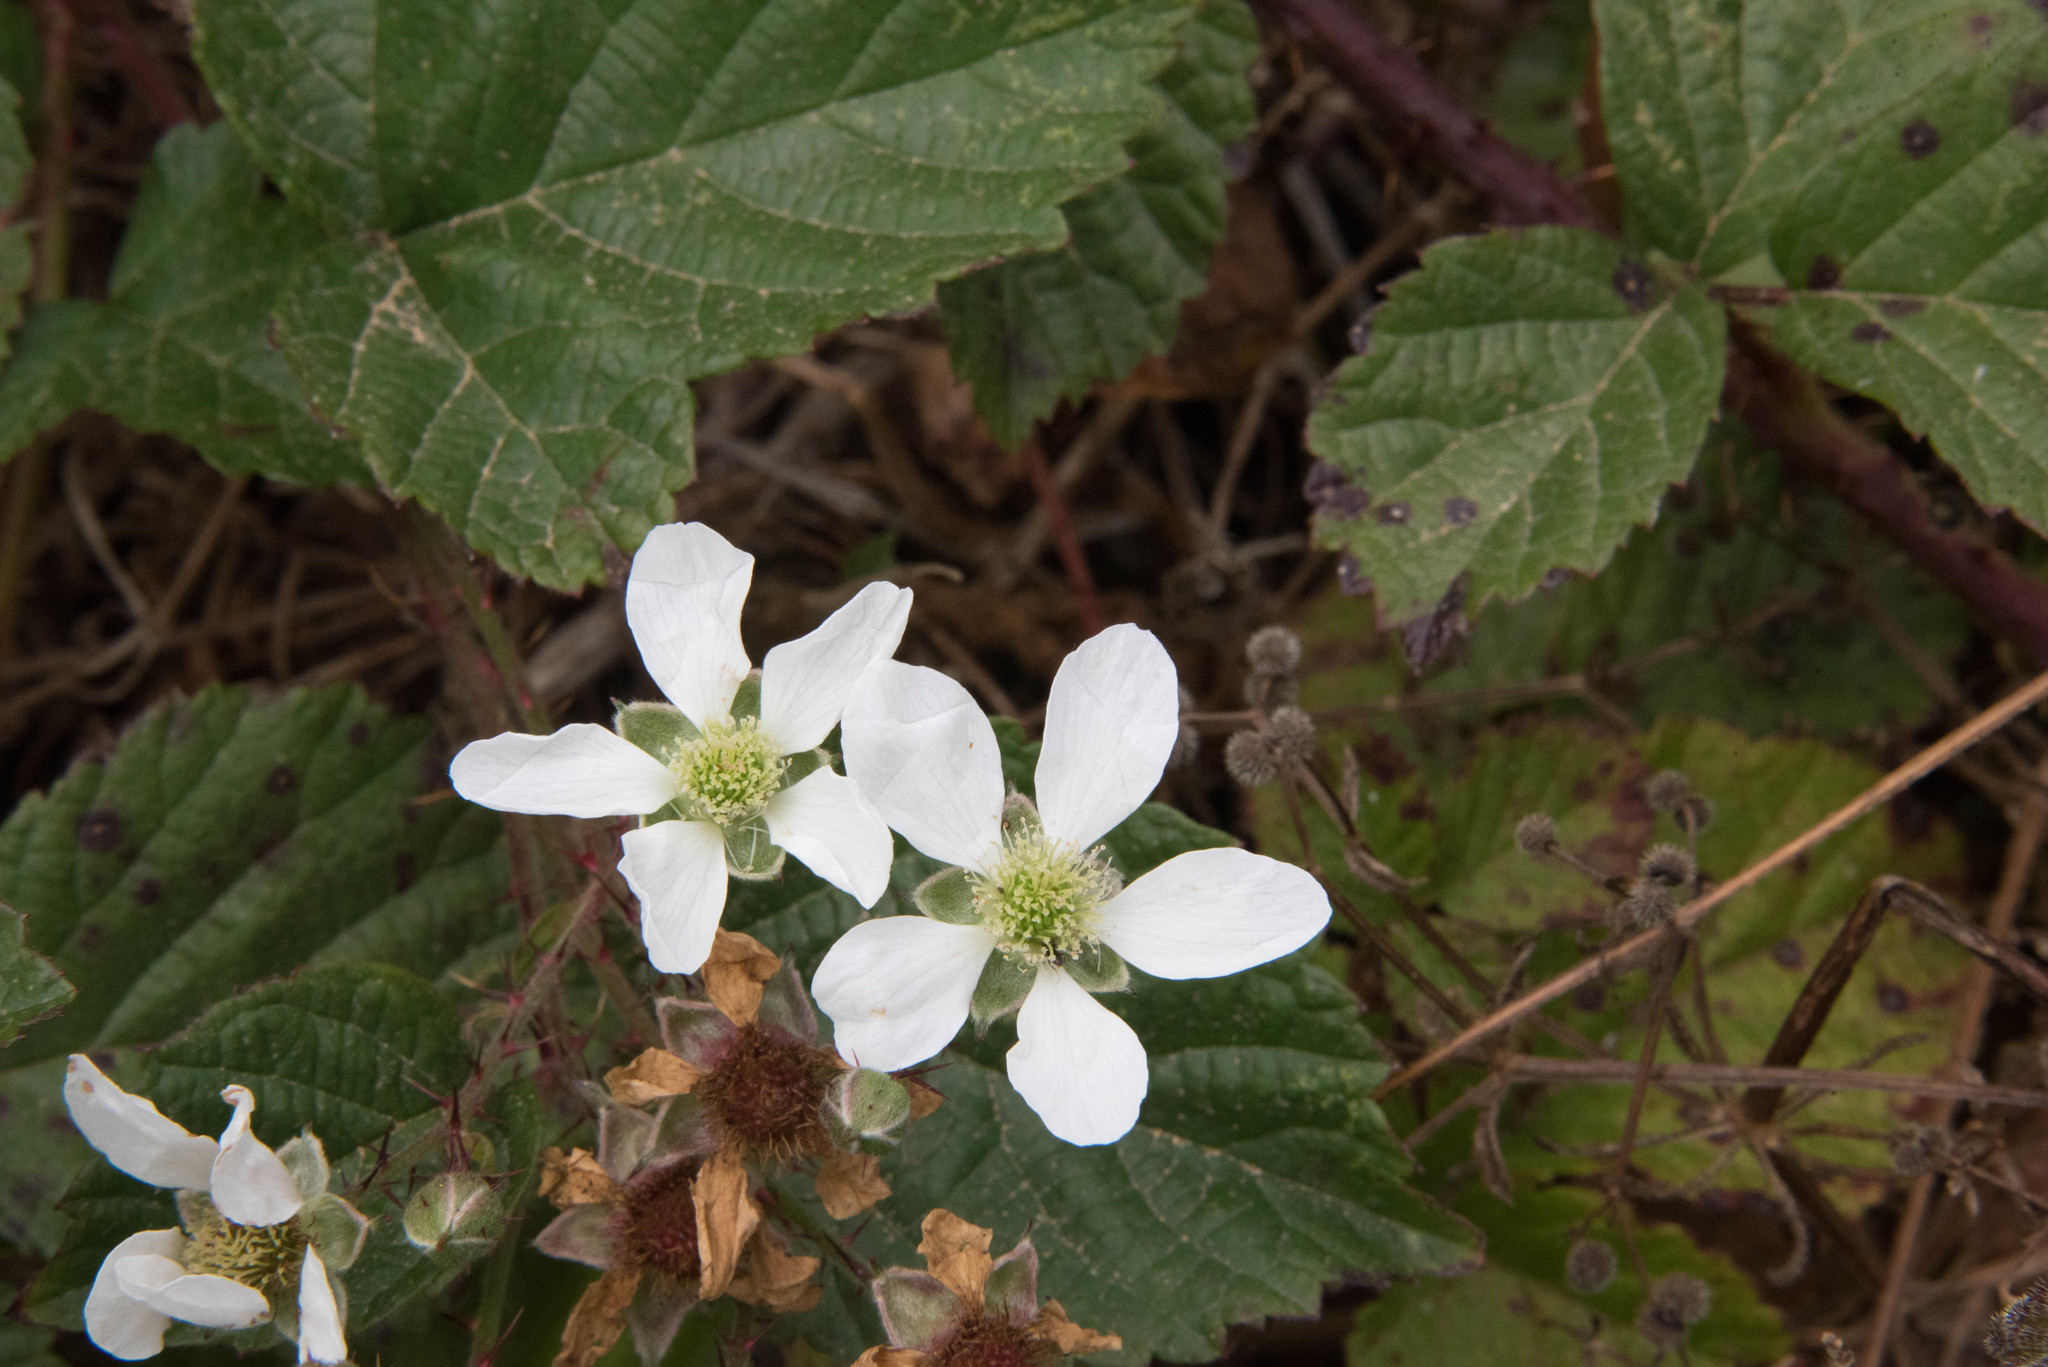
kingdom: Plantae
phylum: Tracheophyta
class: Magnoliopsida
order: Rosales
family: Rosaceae
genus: Rubus
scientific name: Rubus ursinus
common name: Pacific blackberry
